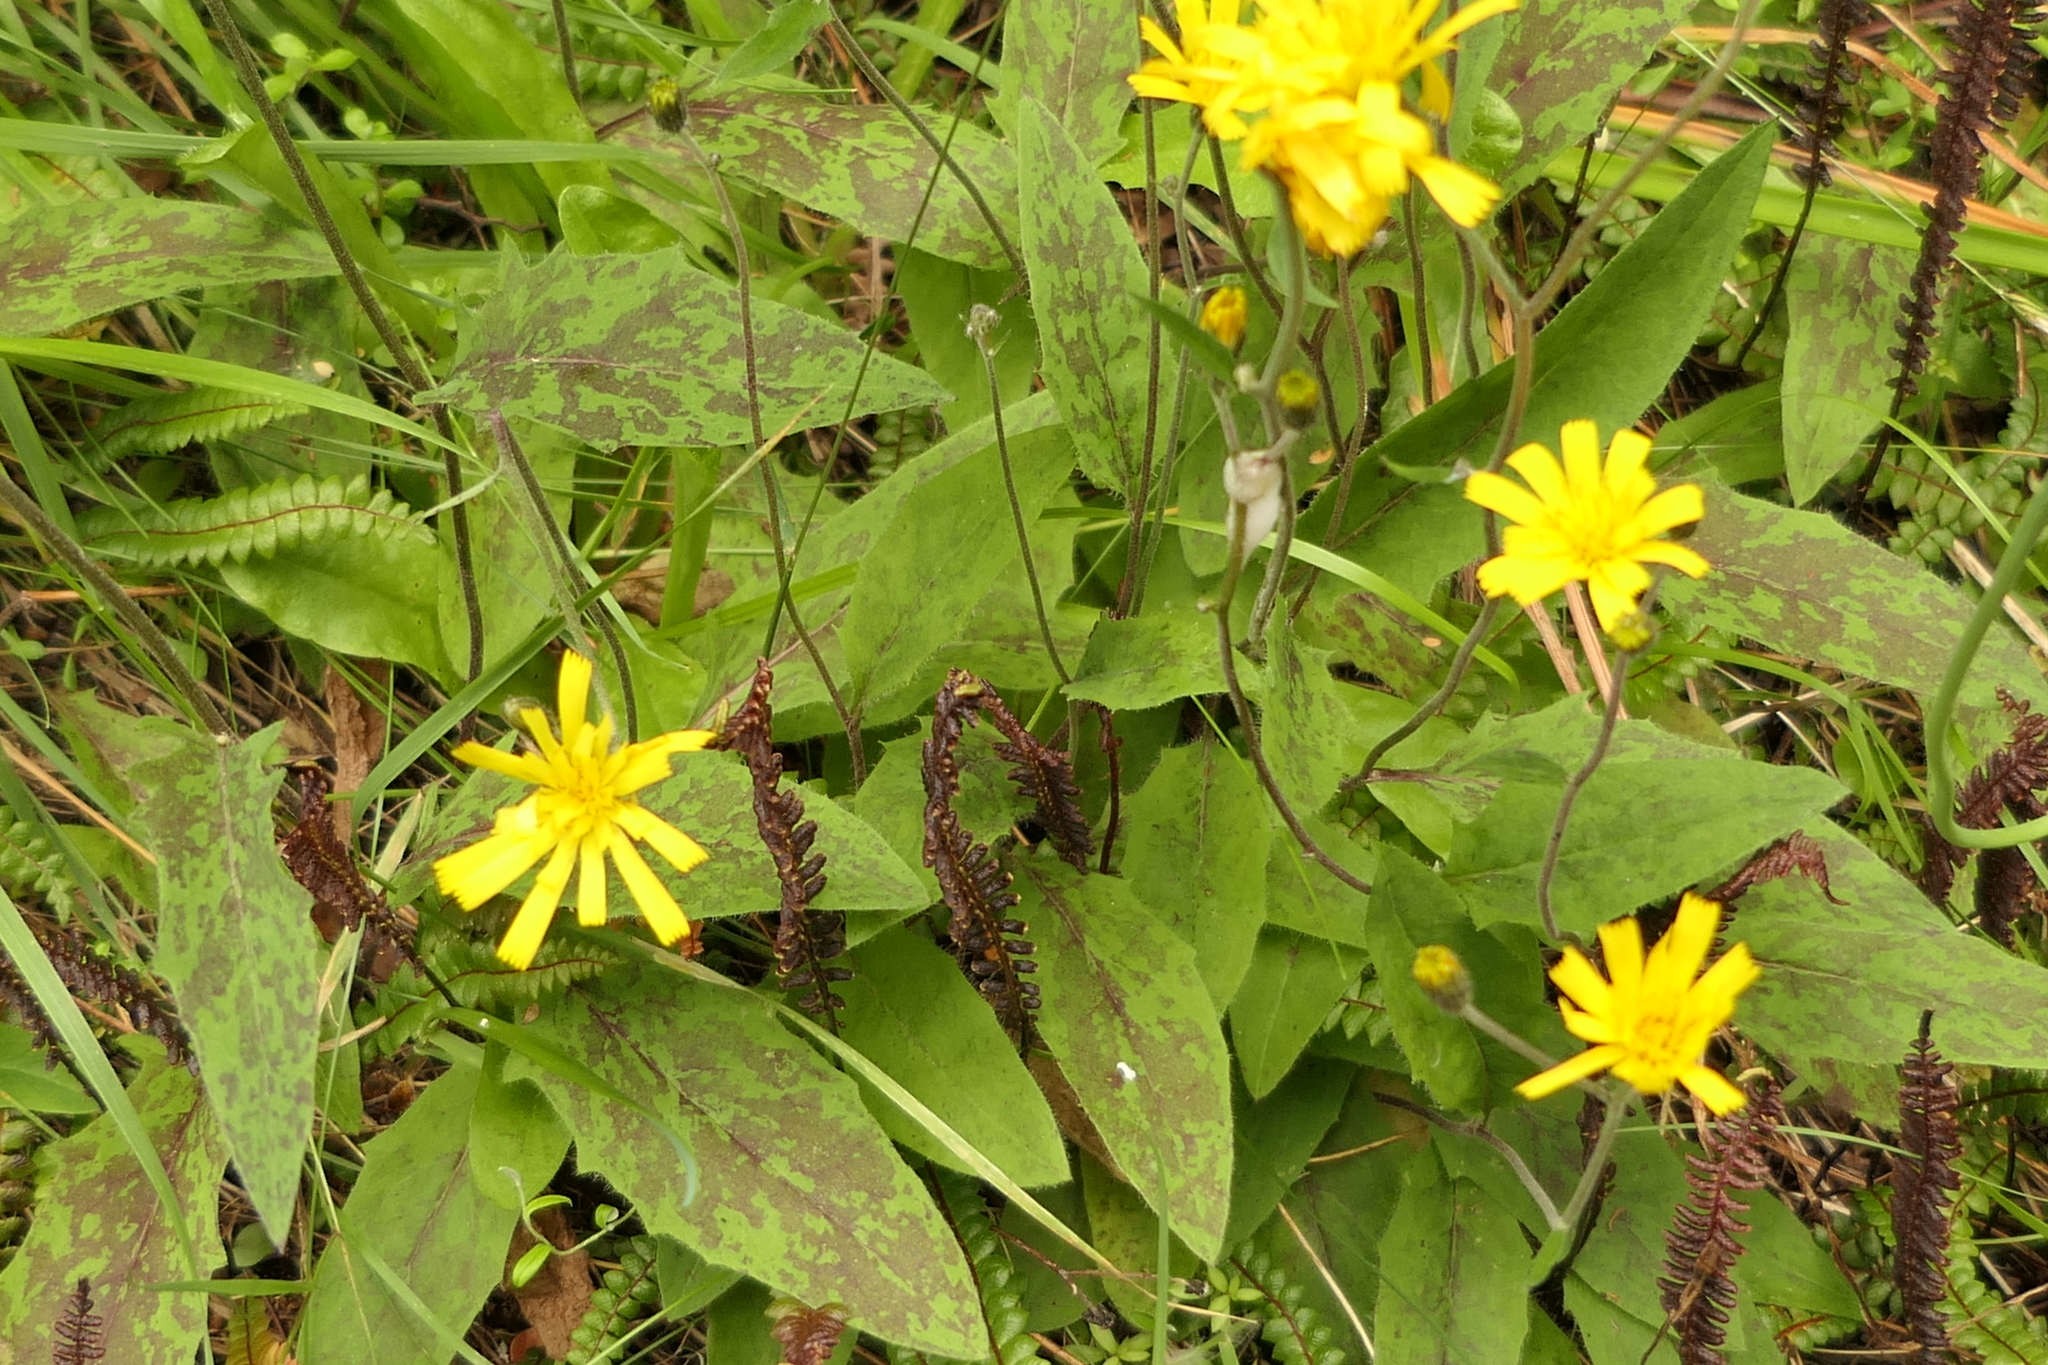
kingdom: Plantae
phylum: Tracheophyta
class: Magnoliopsida
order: Asterales
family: Asteraceae
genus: Hieracium
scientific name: Hieracium maculatum
